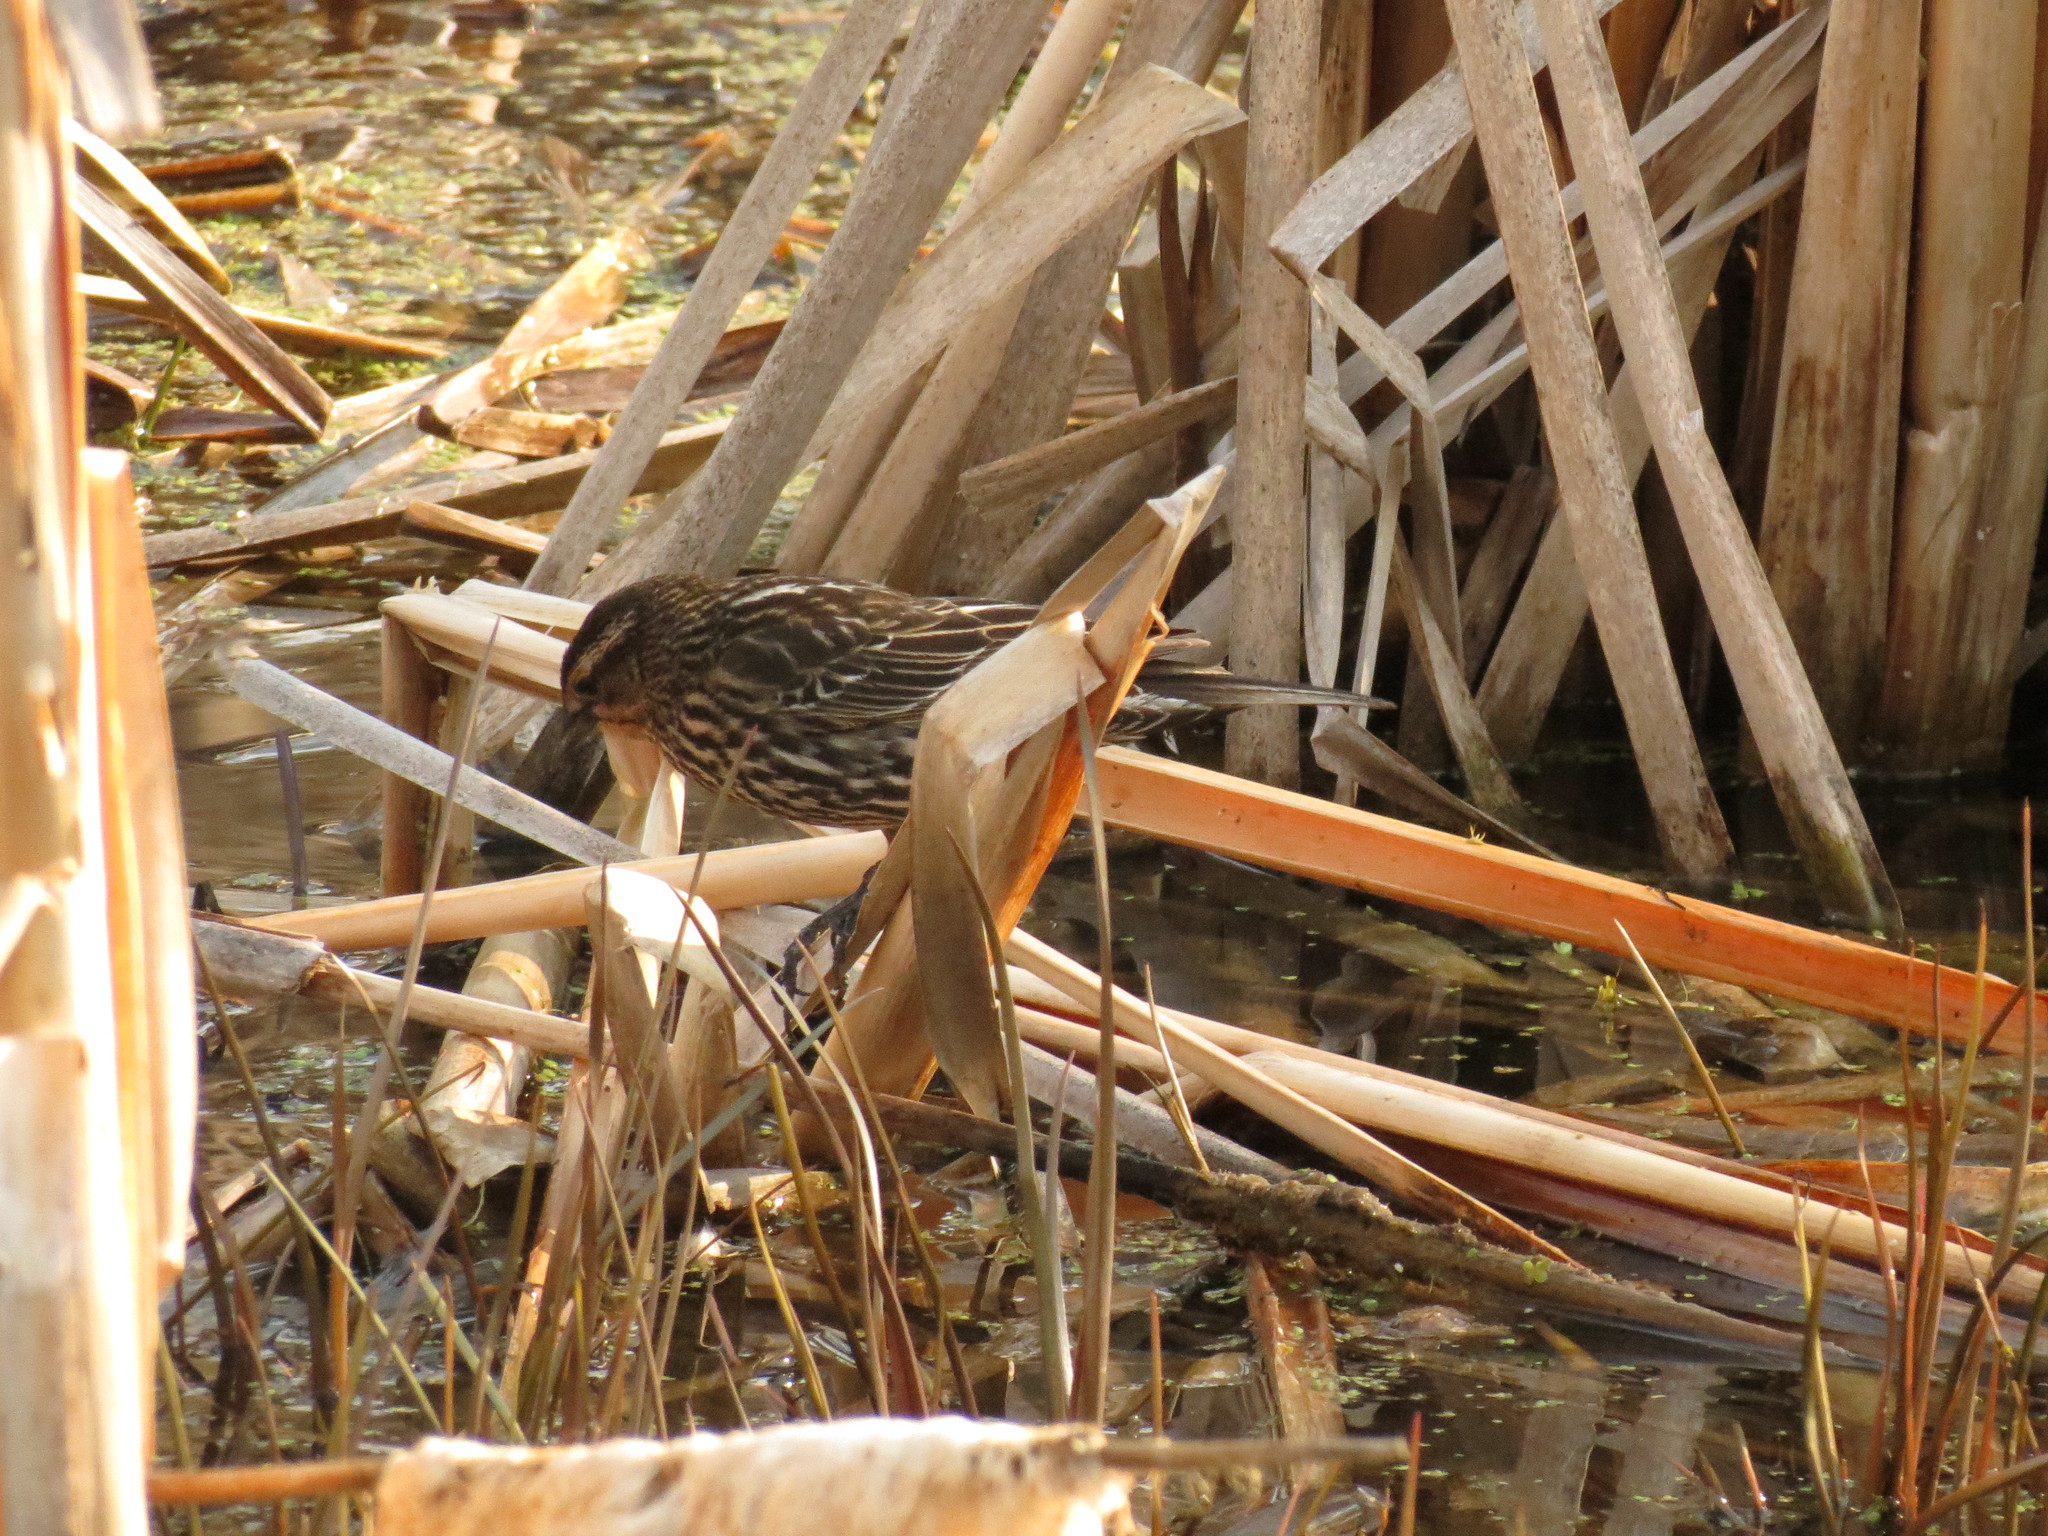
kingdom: Animalia
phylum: Chordata
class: Aves
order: Passeriformes
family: Icteridae
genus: Agelaius
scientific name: Agelaius phoeniceus
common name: Red-winged blackbird
